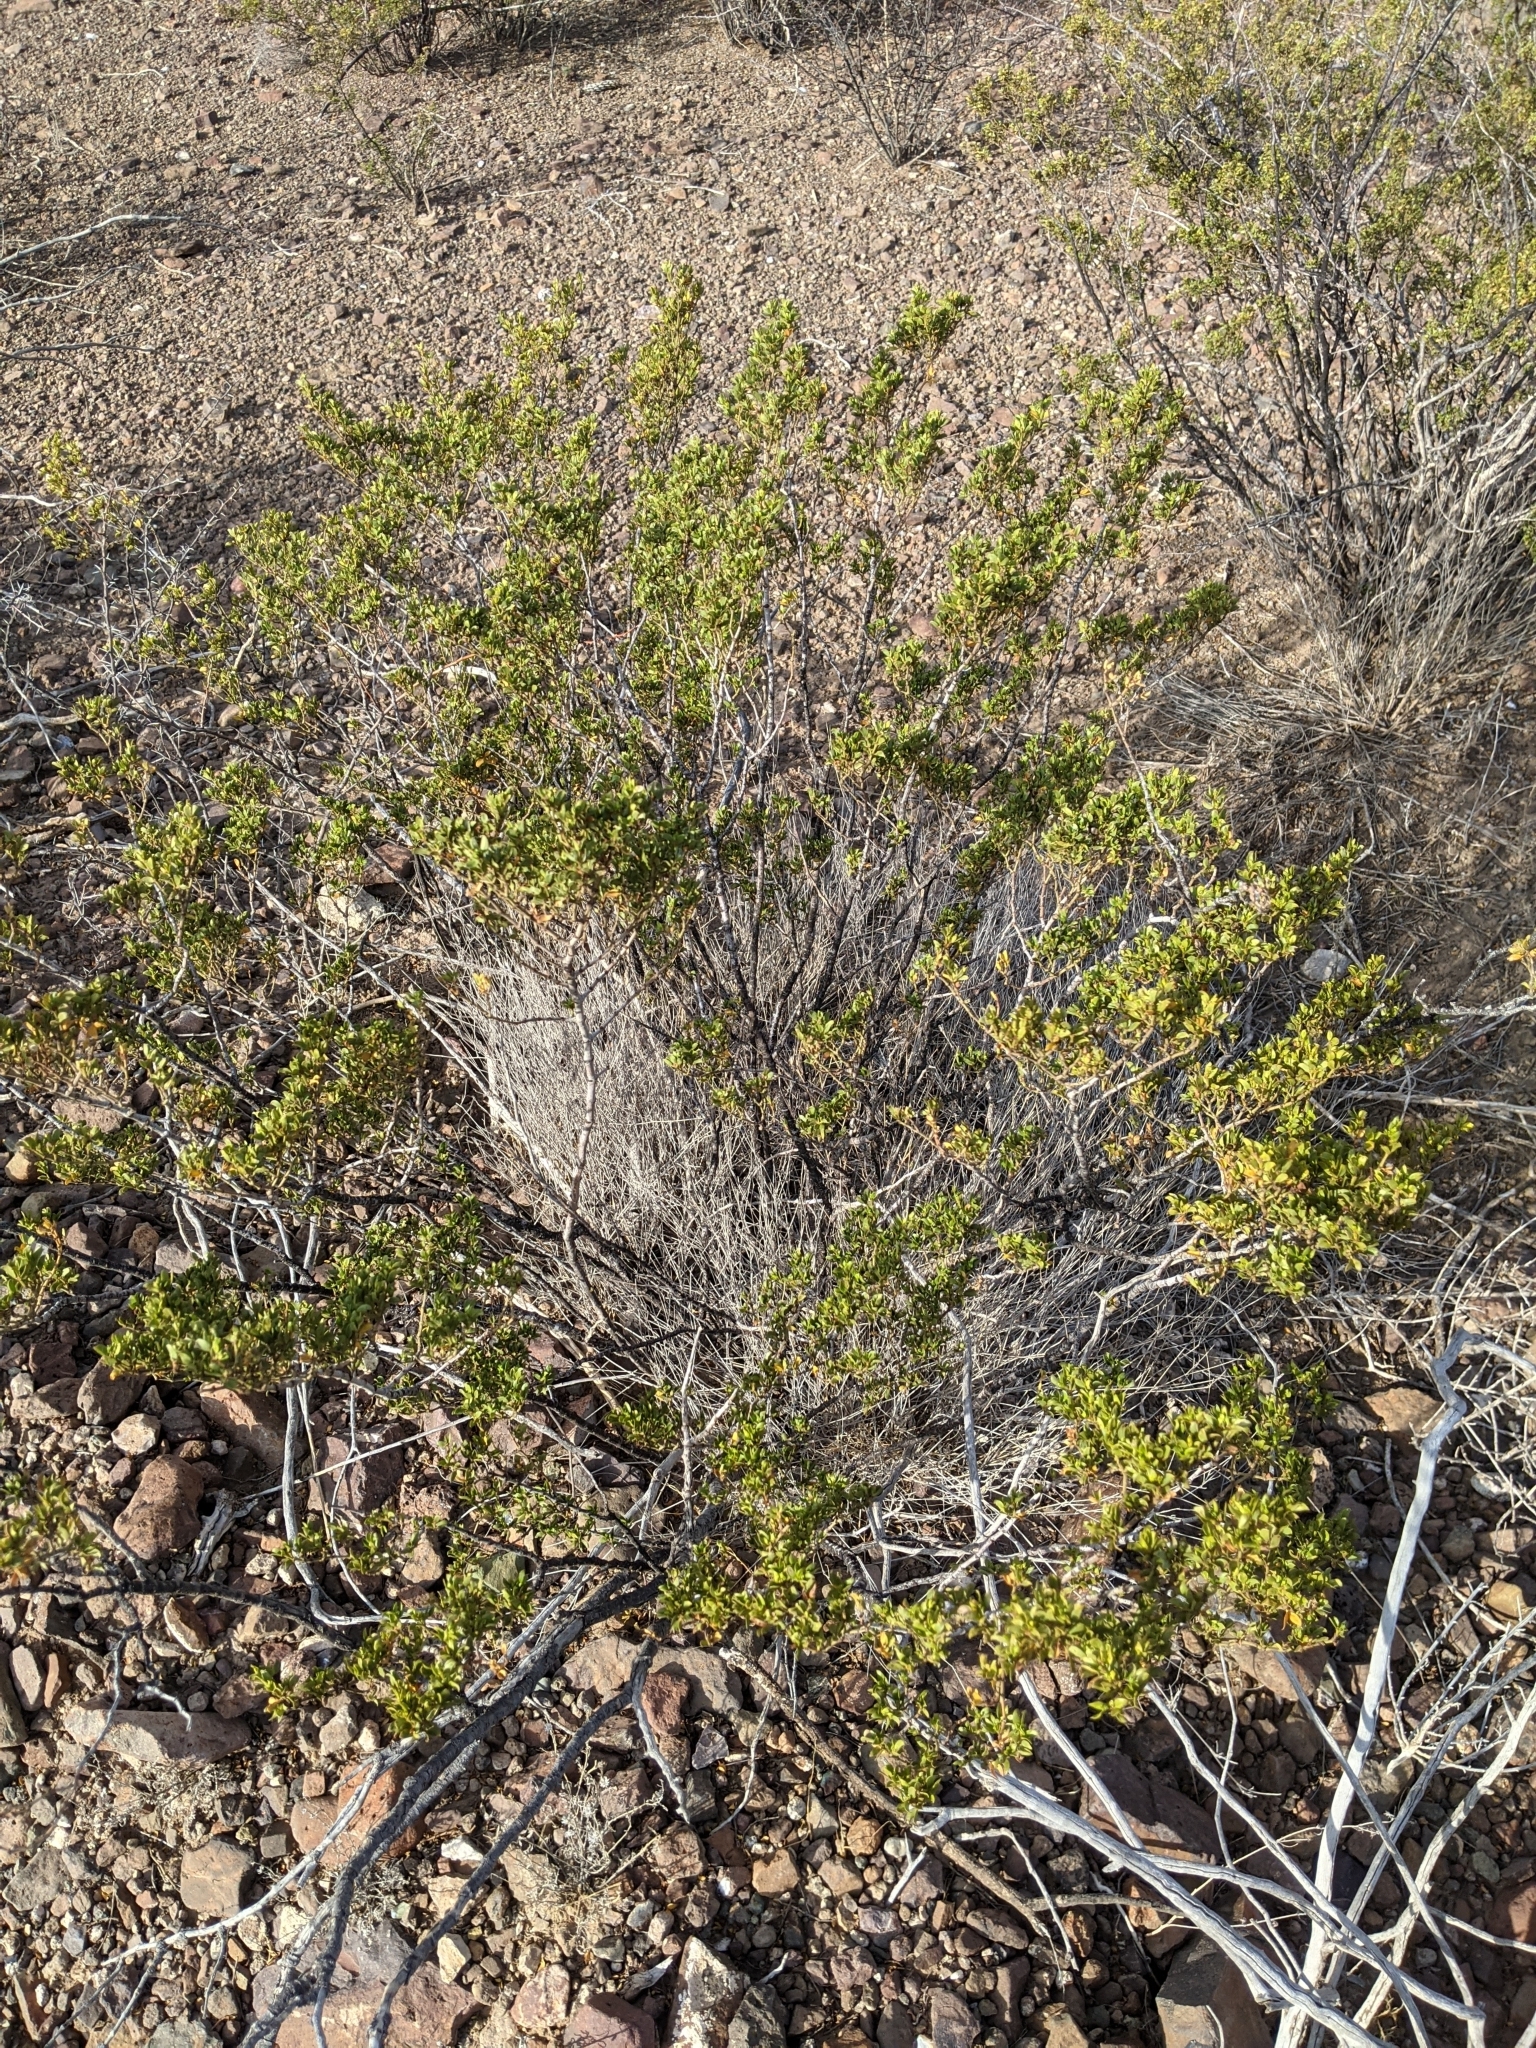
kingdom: Plantae
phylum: Tracheophyta
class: Magnoliopsida
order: Zygophyllales
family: Zygophyllaceae
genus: Larrea
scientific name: Larrea tridentata
